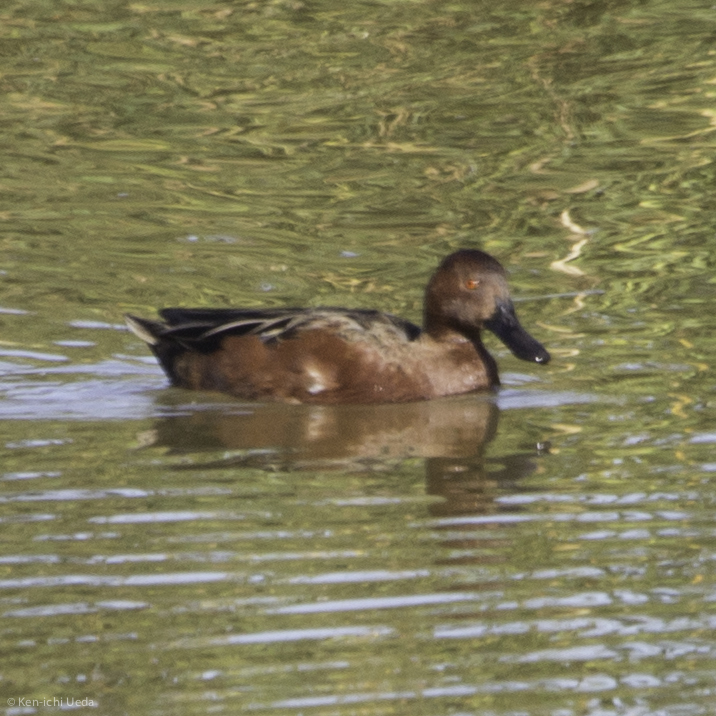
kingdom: Animalia
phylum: Chordata
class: Aves
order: Anseriformes
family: Anatidae
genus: Spatula
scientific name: Spatula cyanoptera
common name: Cinnamon teal
